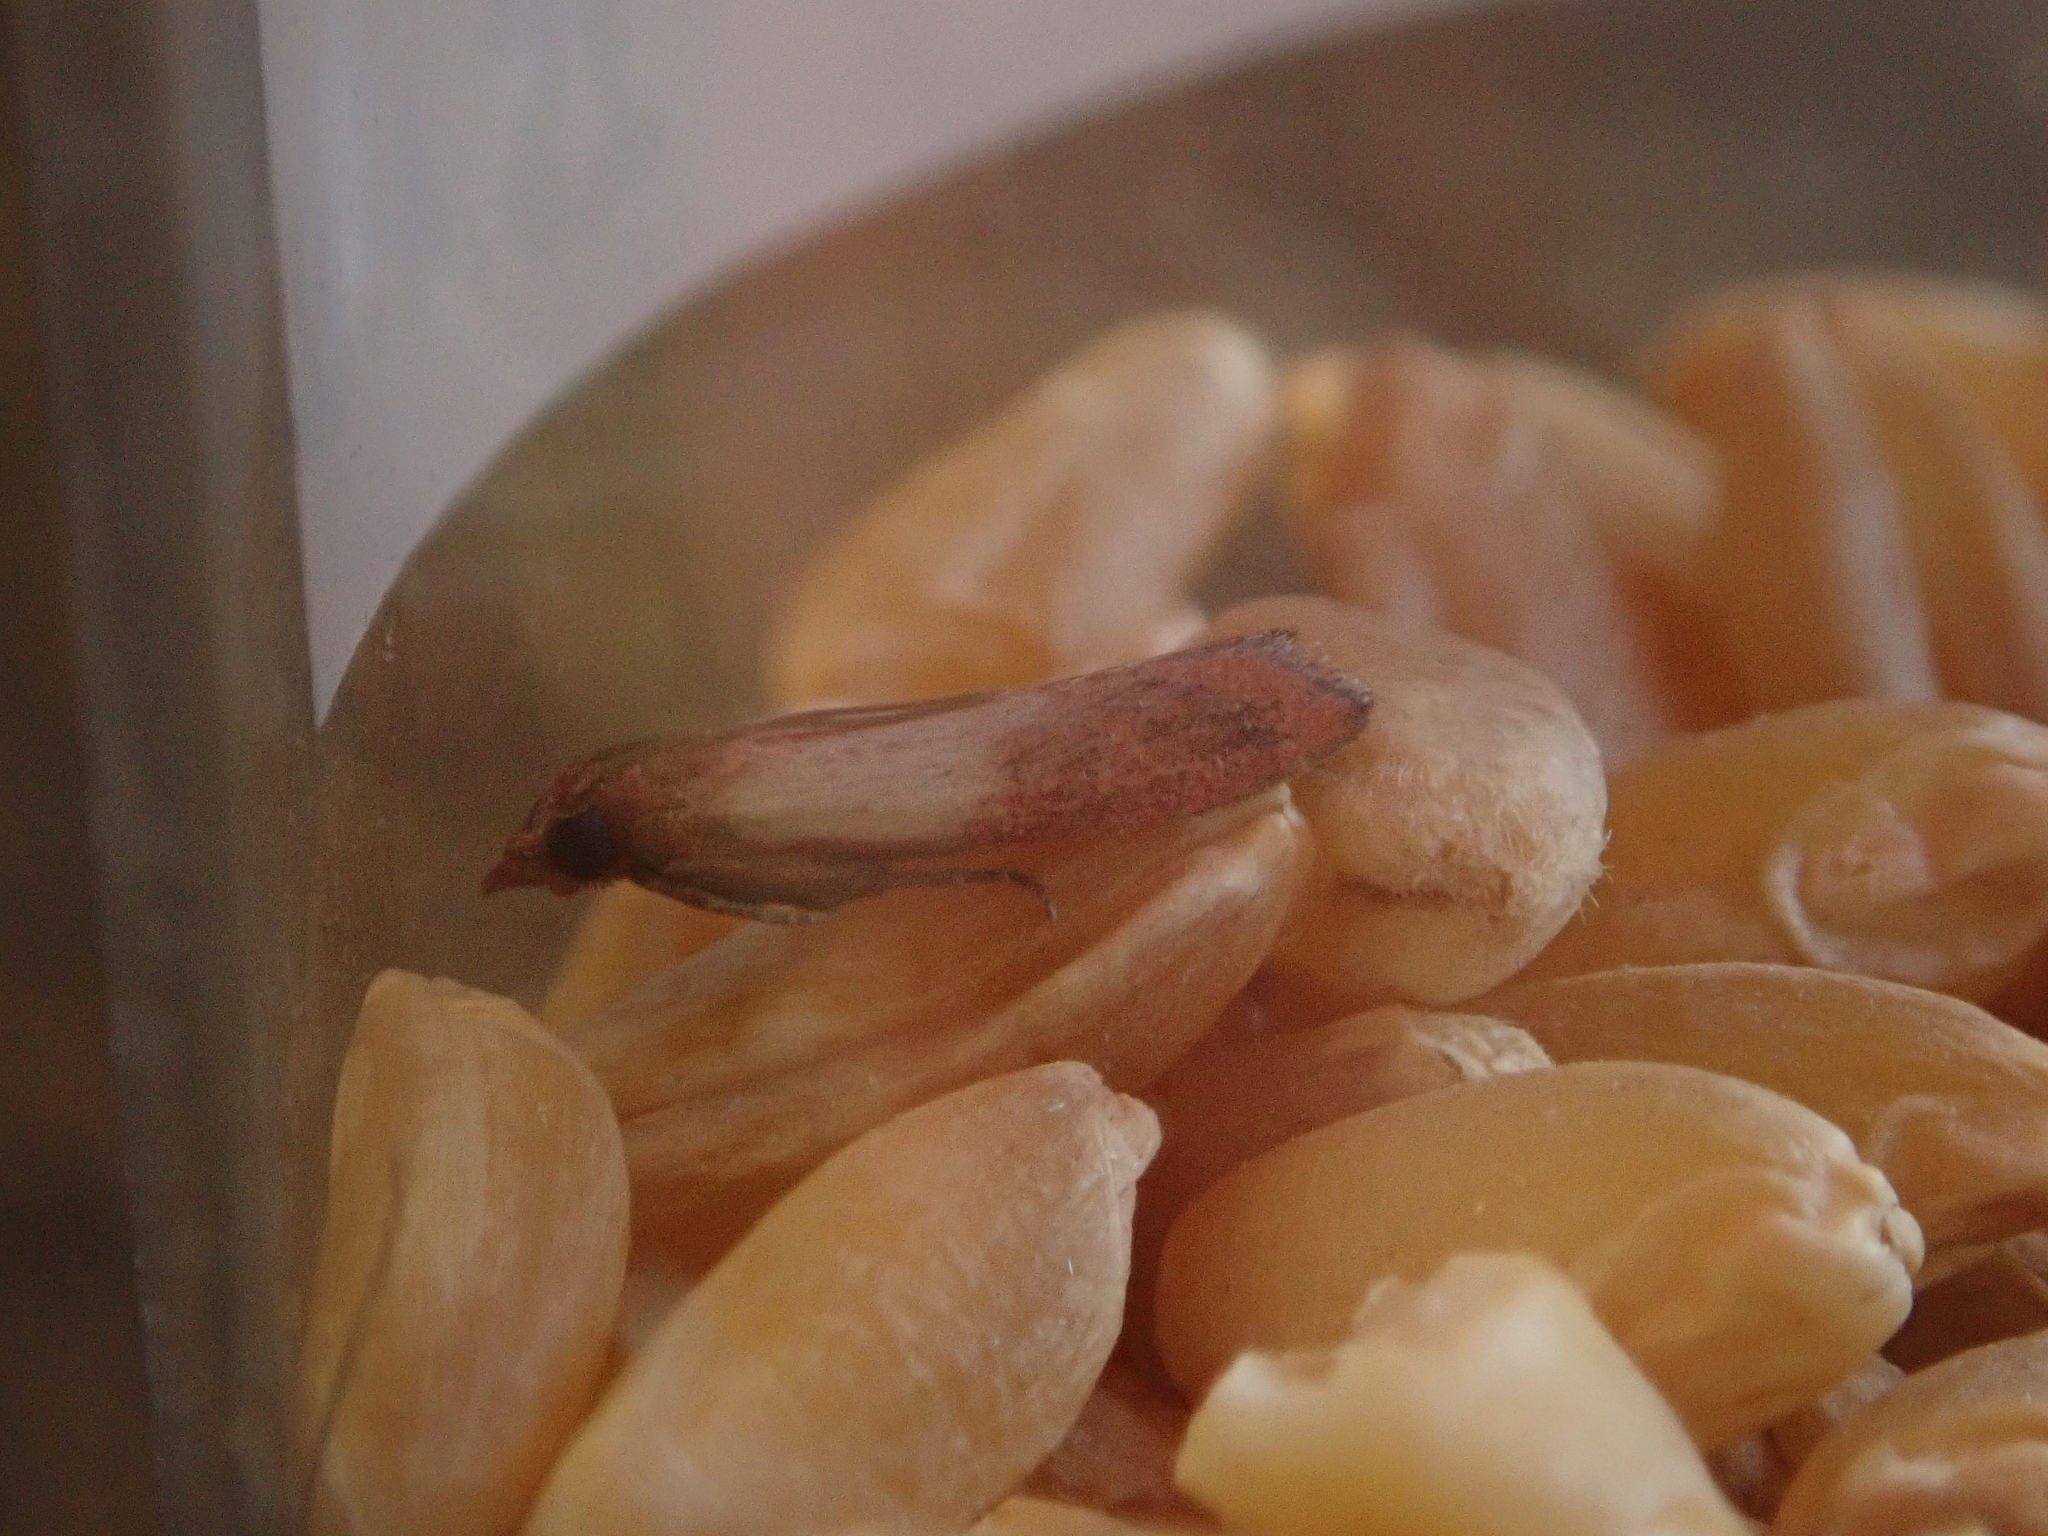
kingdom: Animalia
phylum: Arthropoda
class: Insecta
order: Lepidoptera
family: Pyralidae
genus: Plodia
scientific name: Plodia interpunctella
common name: Indian meal moth
